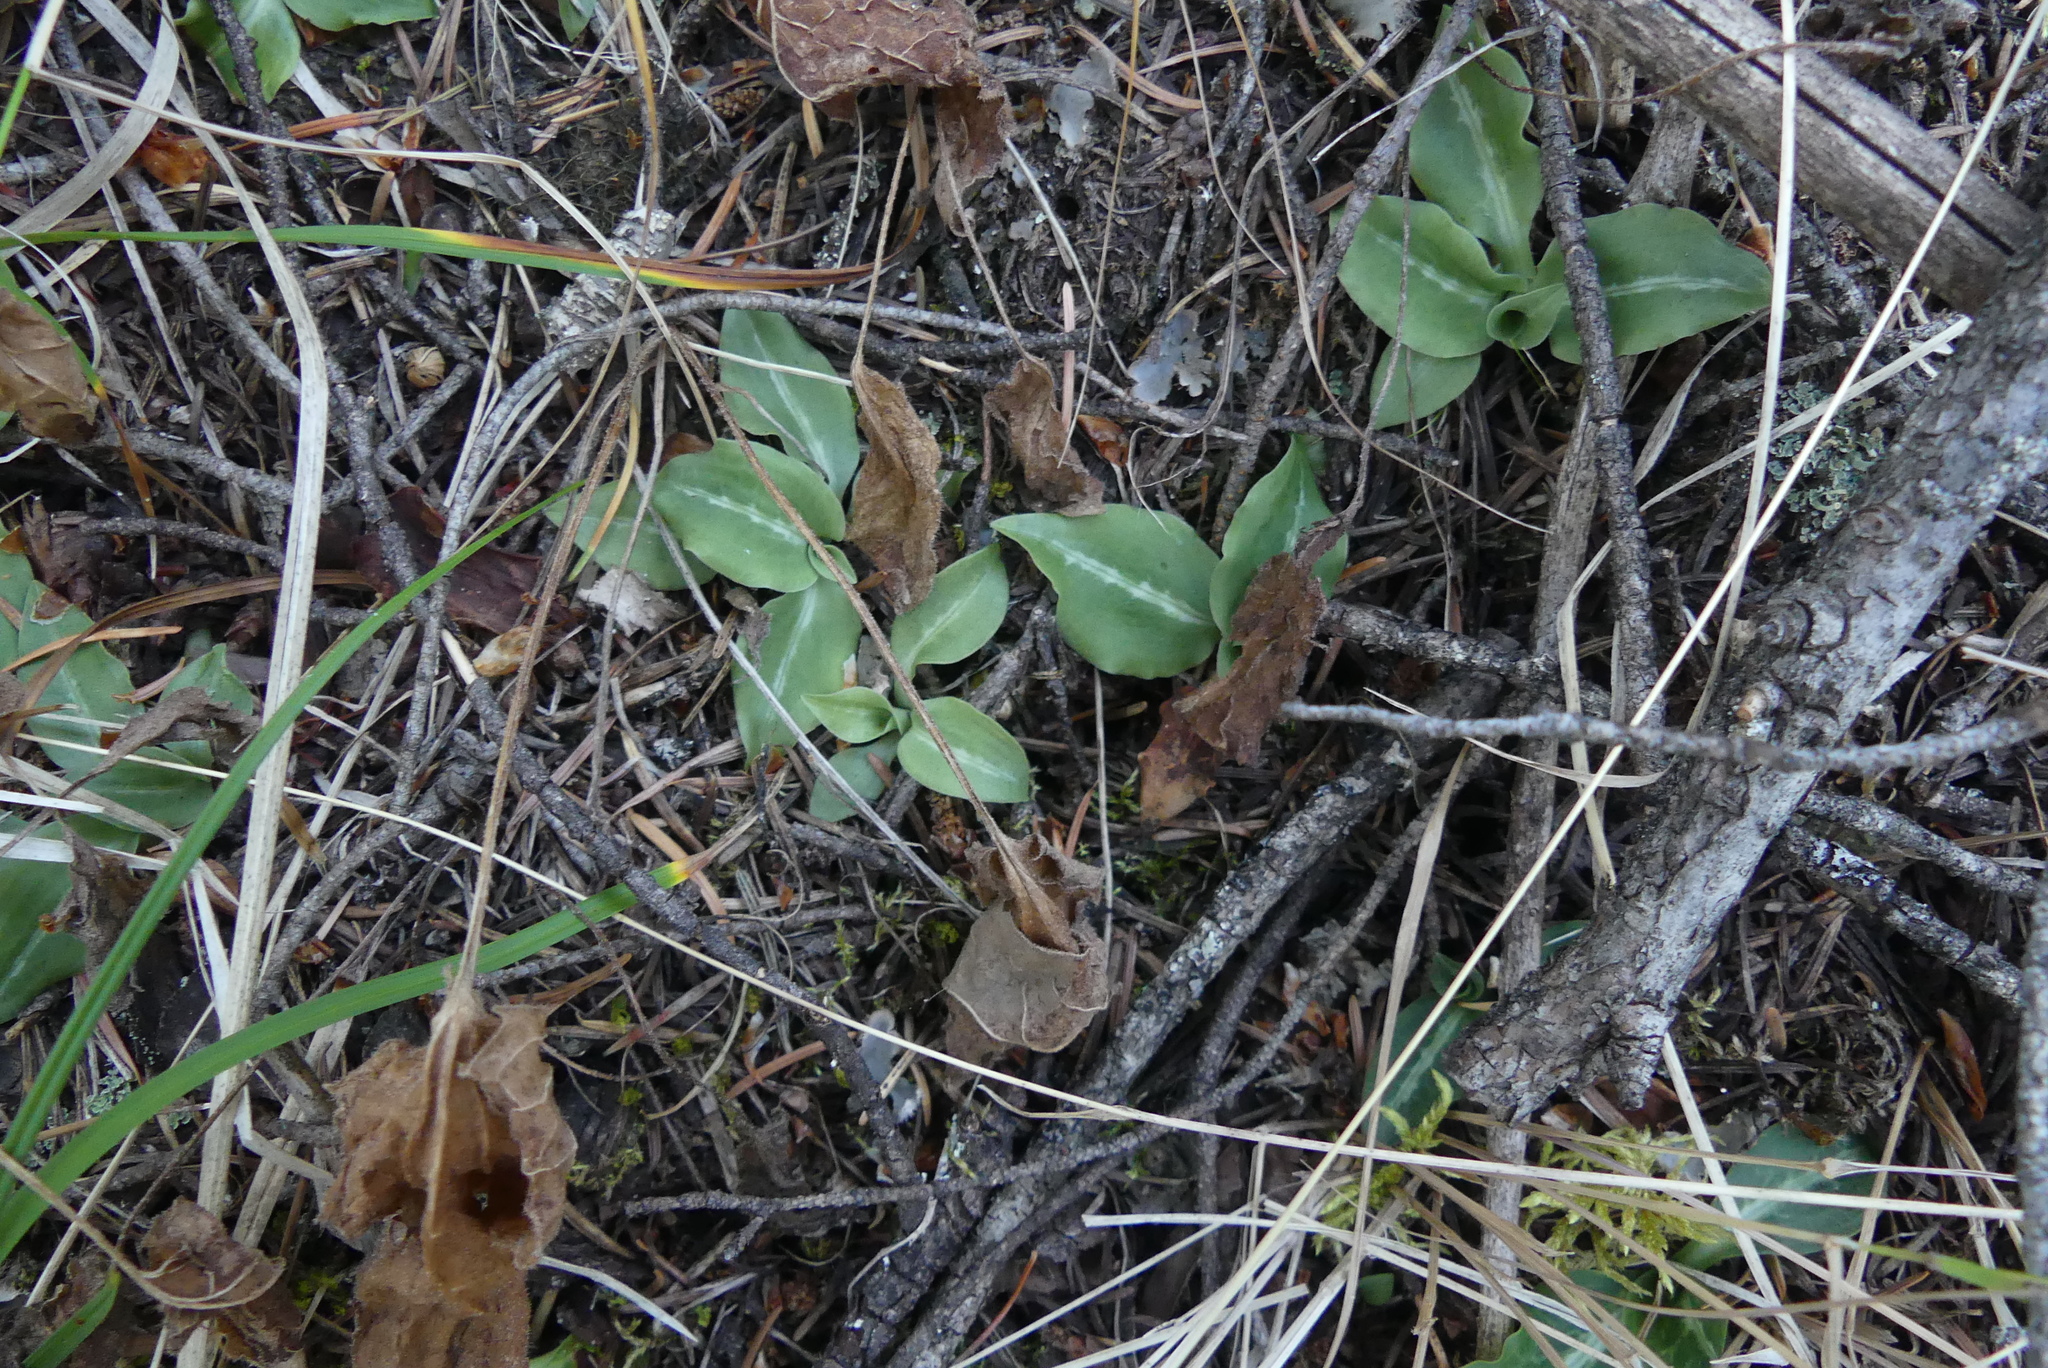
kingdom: Plantae
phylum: Tracheophyta
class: Liliopsida
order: Asparagales
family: Orchidaceae
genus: Goodyera
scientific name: Goodyera oblongifolia
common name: Giant rattlesnake-plantain
